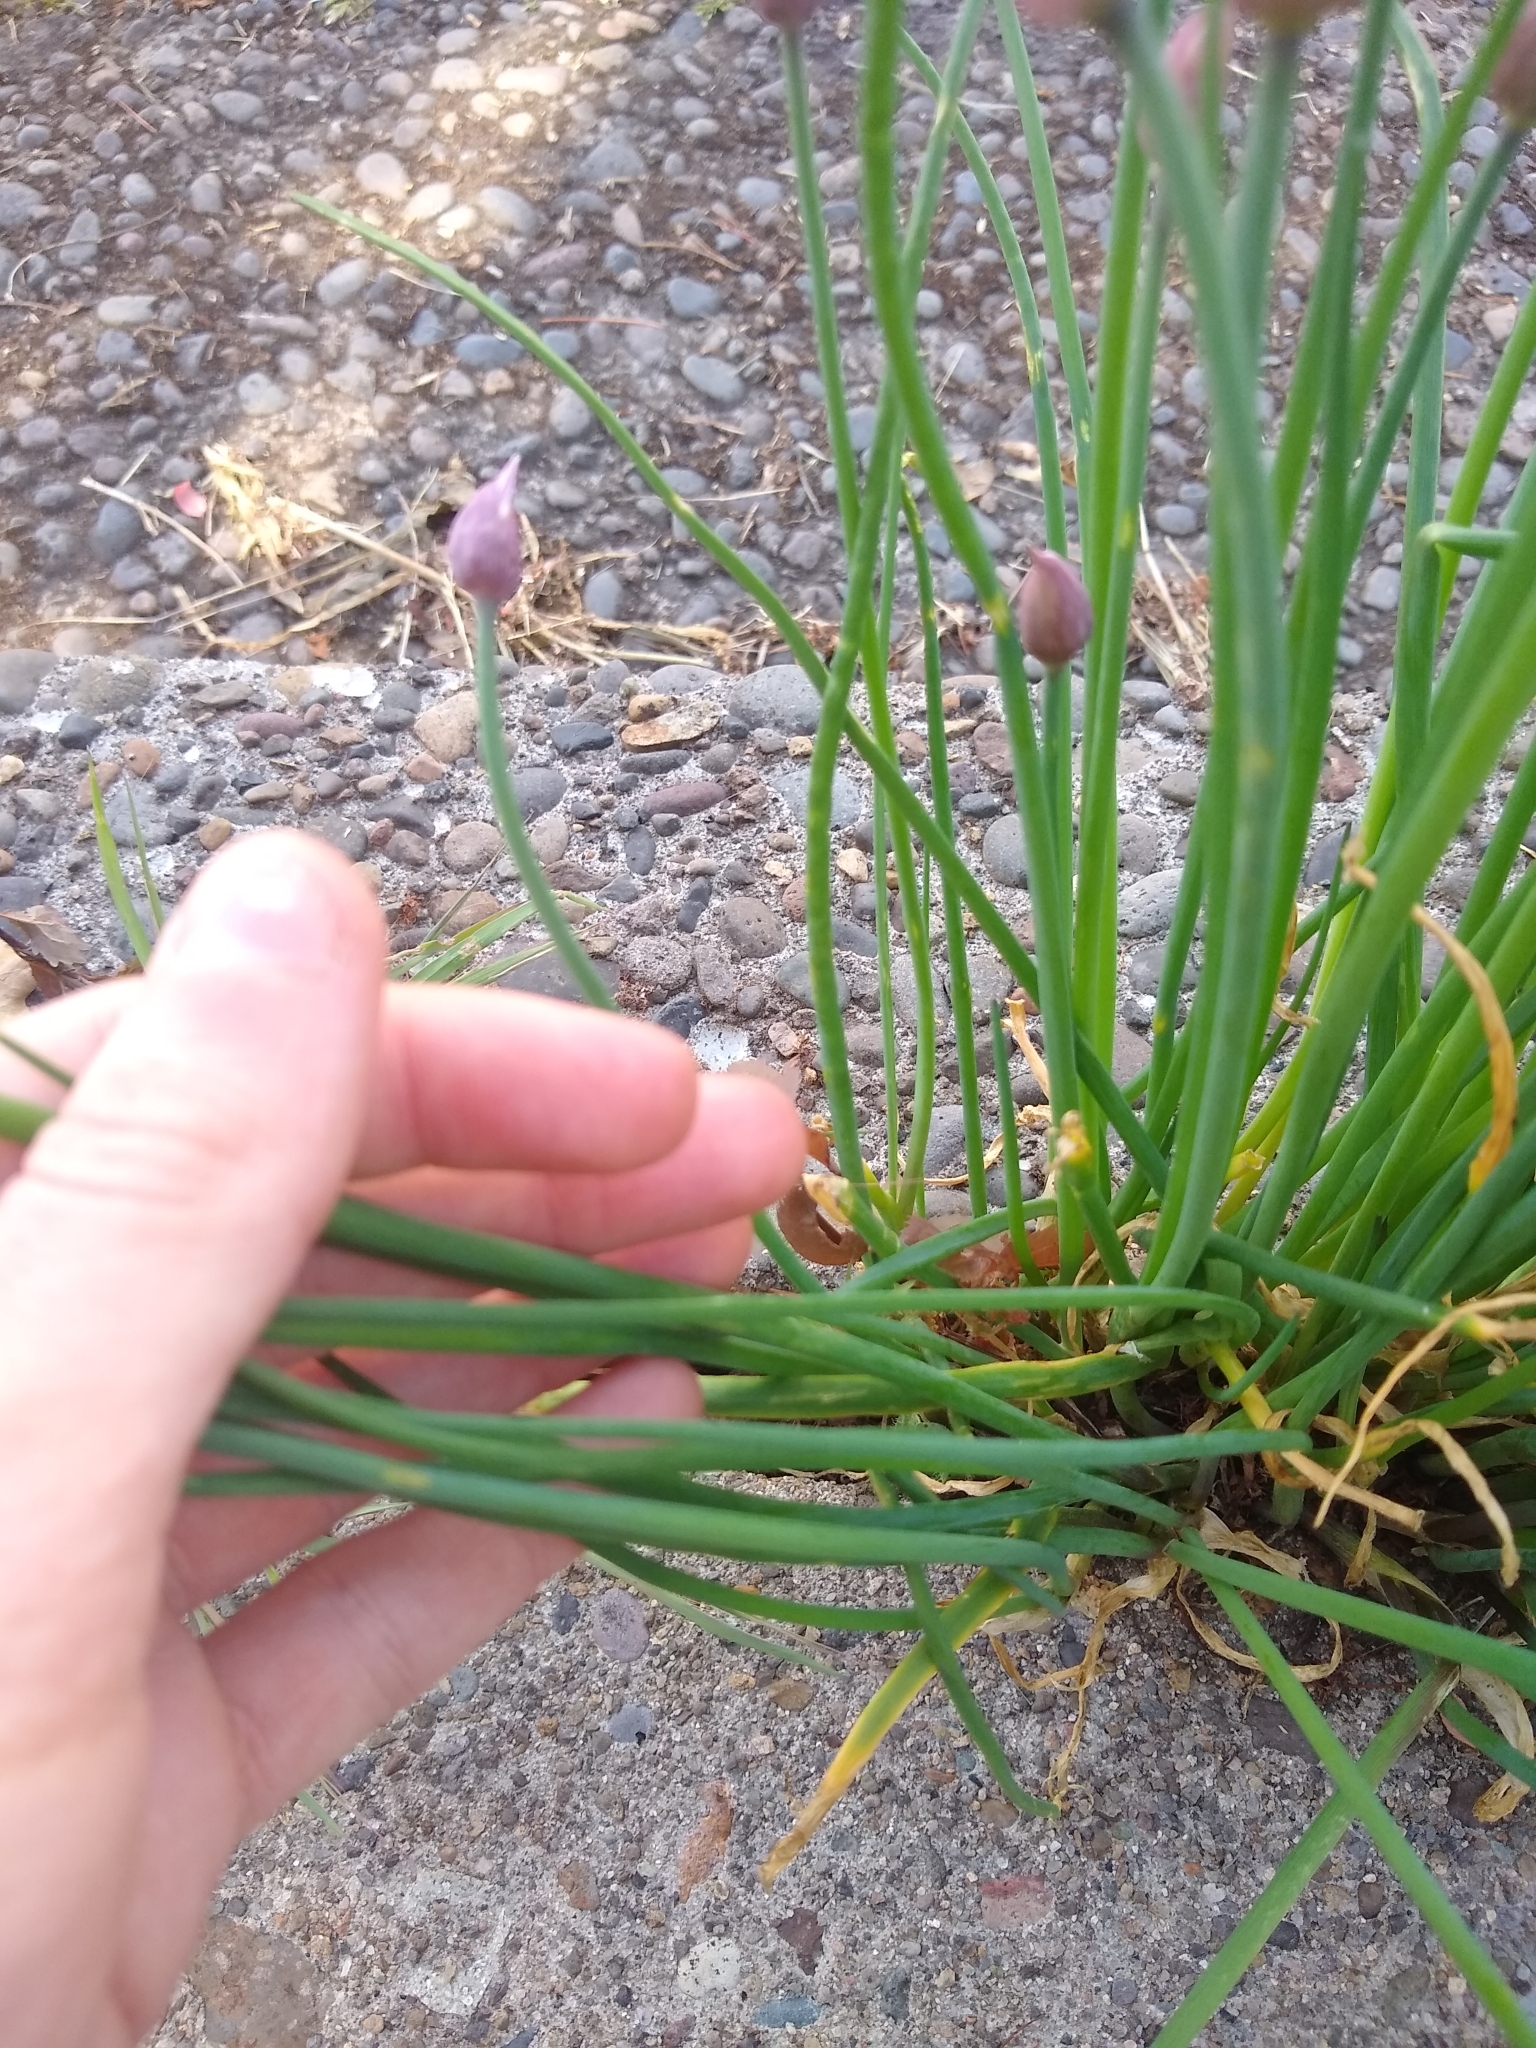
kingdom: Plantae
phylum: Tracheophyta
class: Liliopsida
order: Asparagales
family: Amaryllidaceae
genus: Allium
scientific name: Allium schoenoprasum
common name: Chives
